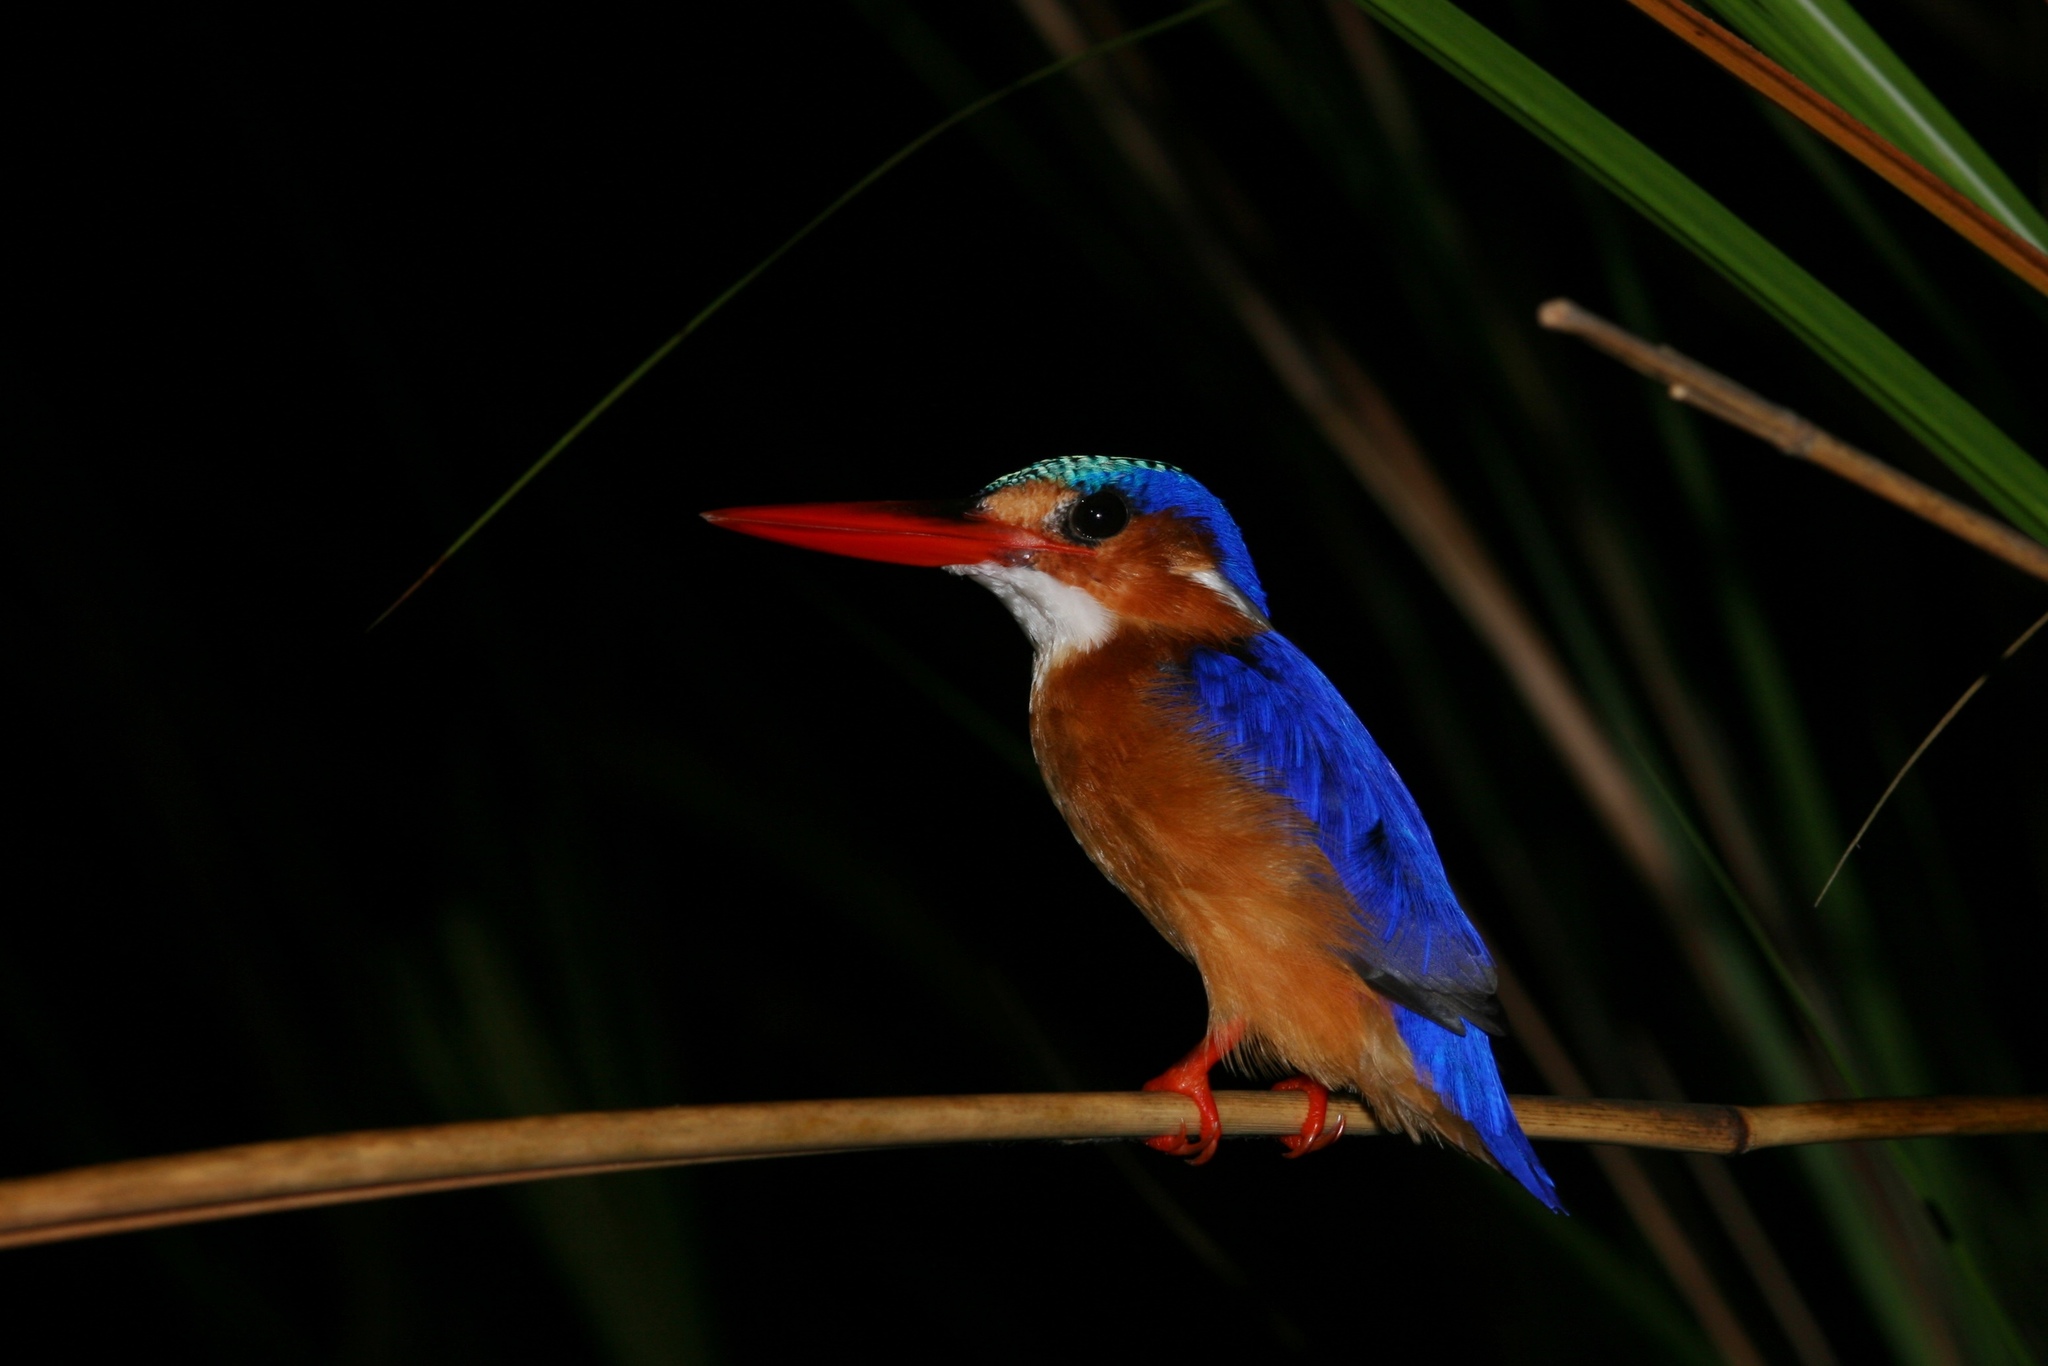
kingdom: Animalia
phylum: Chordata
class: Aves
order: Coraciiformes
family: Alcedinidae
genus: Corythornis
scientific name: Corythornis cristatus
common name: Malachite kingfisher
